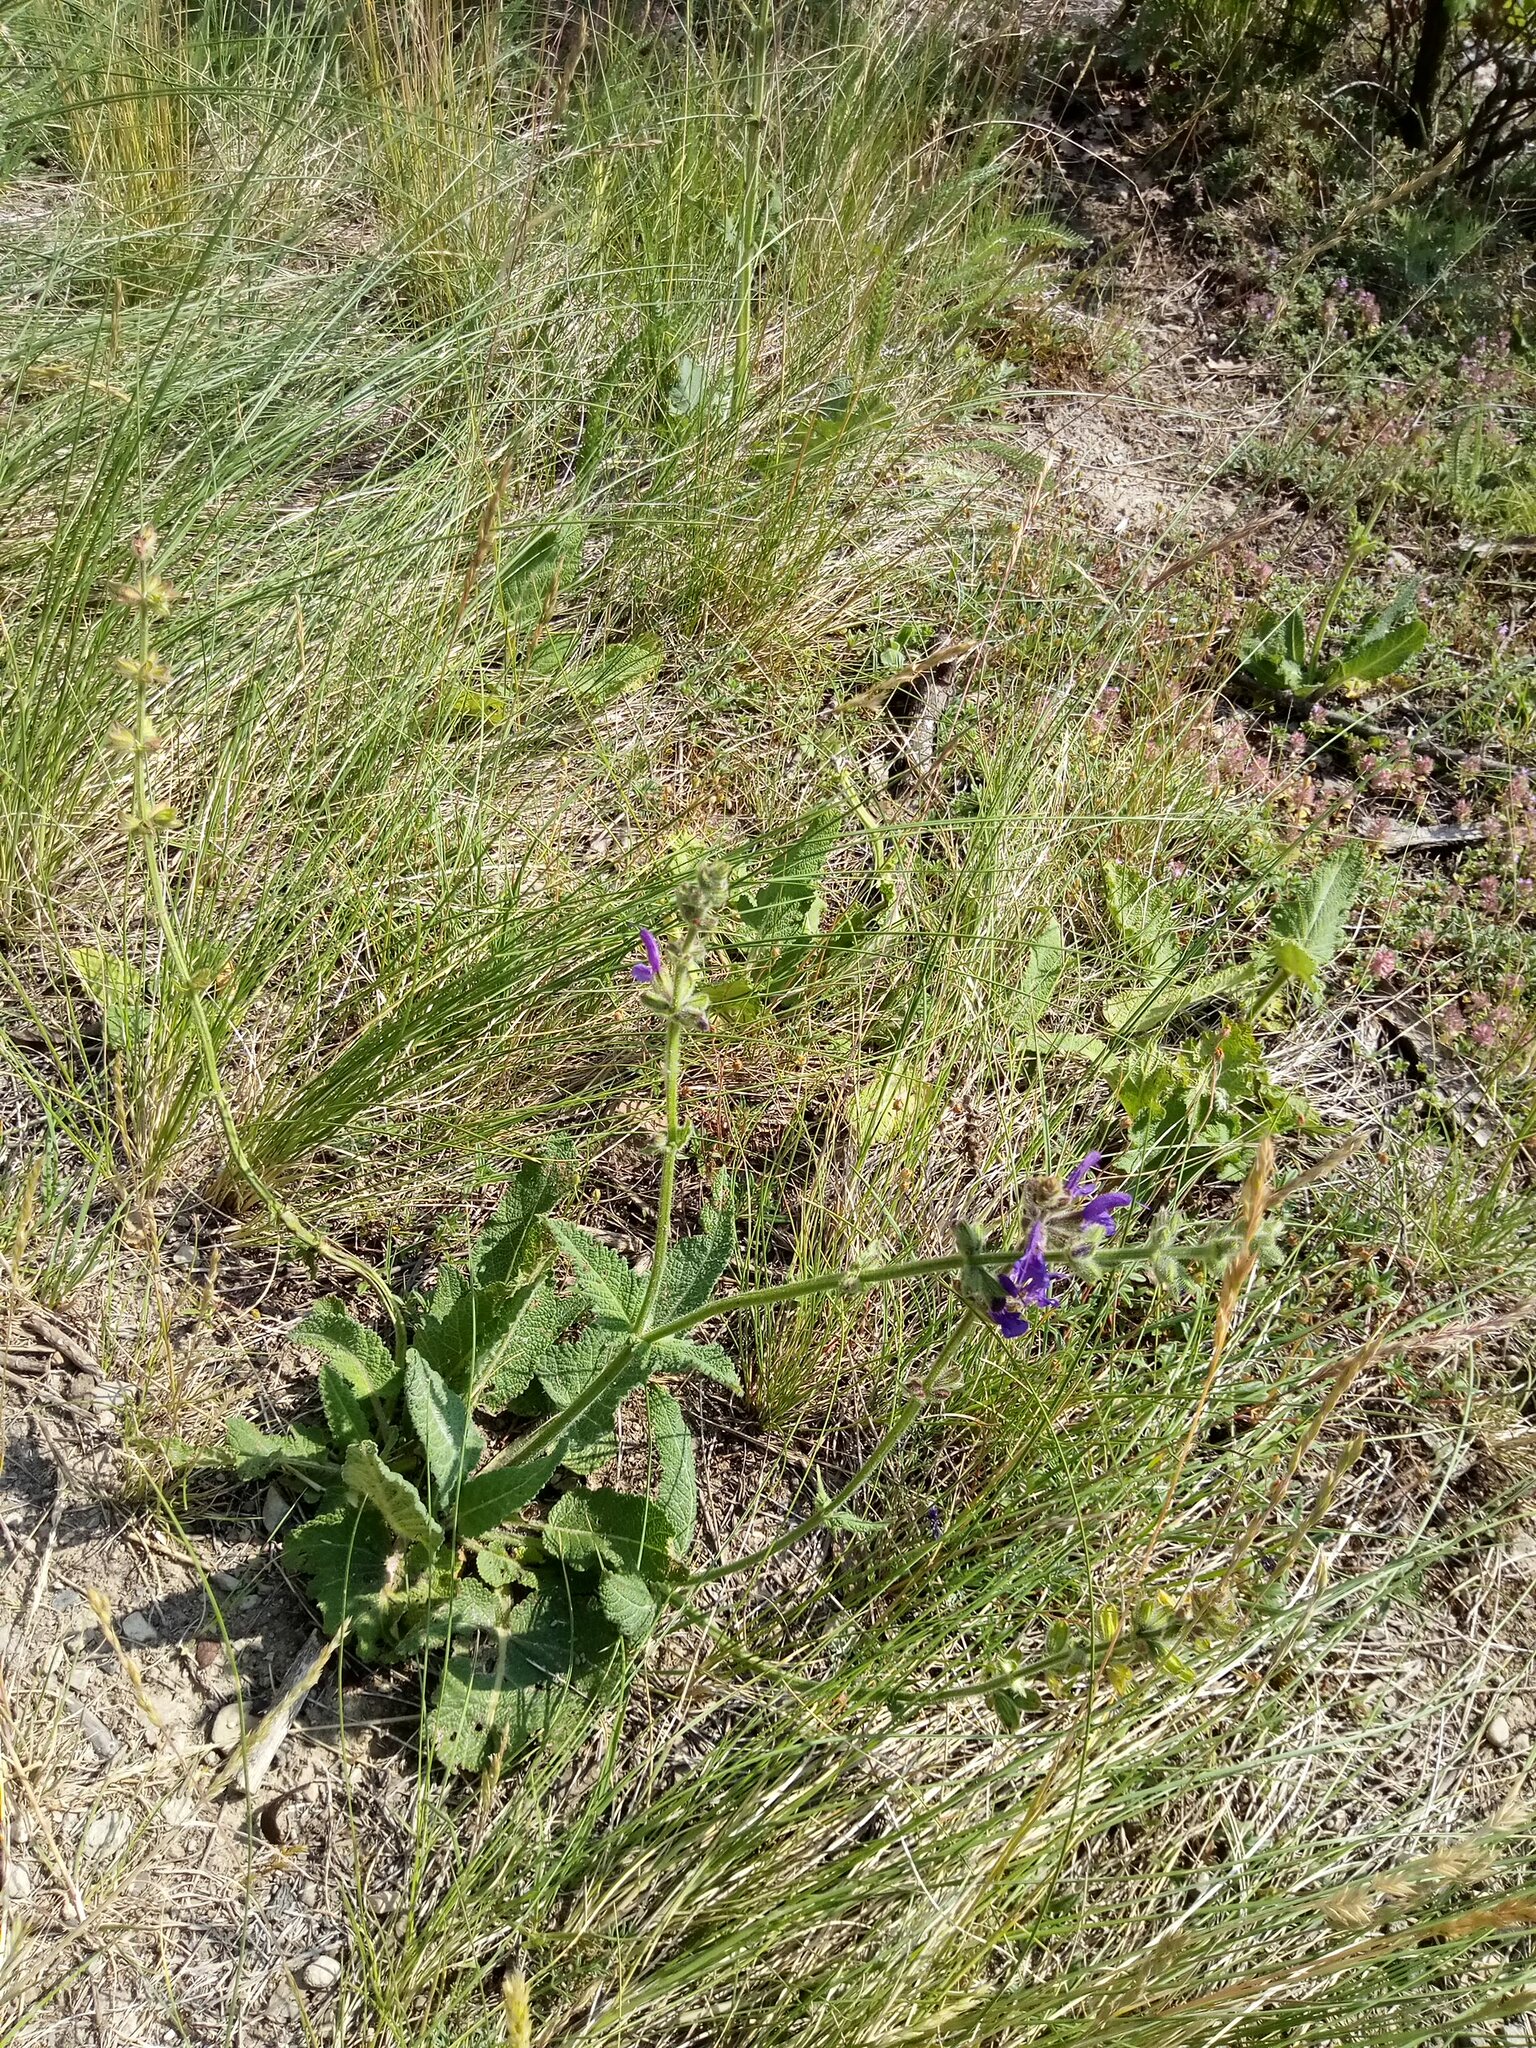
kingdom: Plantae
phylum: Tracheophyta
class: Magnoliopsida
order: Lamiales
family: Lamiaceae
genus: Salvia
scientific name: Salvia pratensis
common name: Meadow sage
